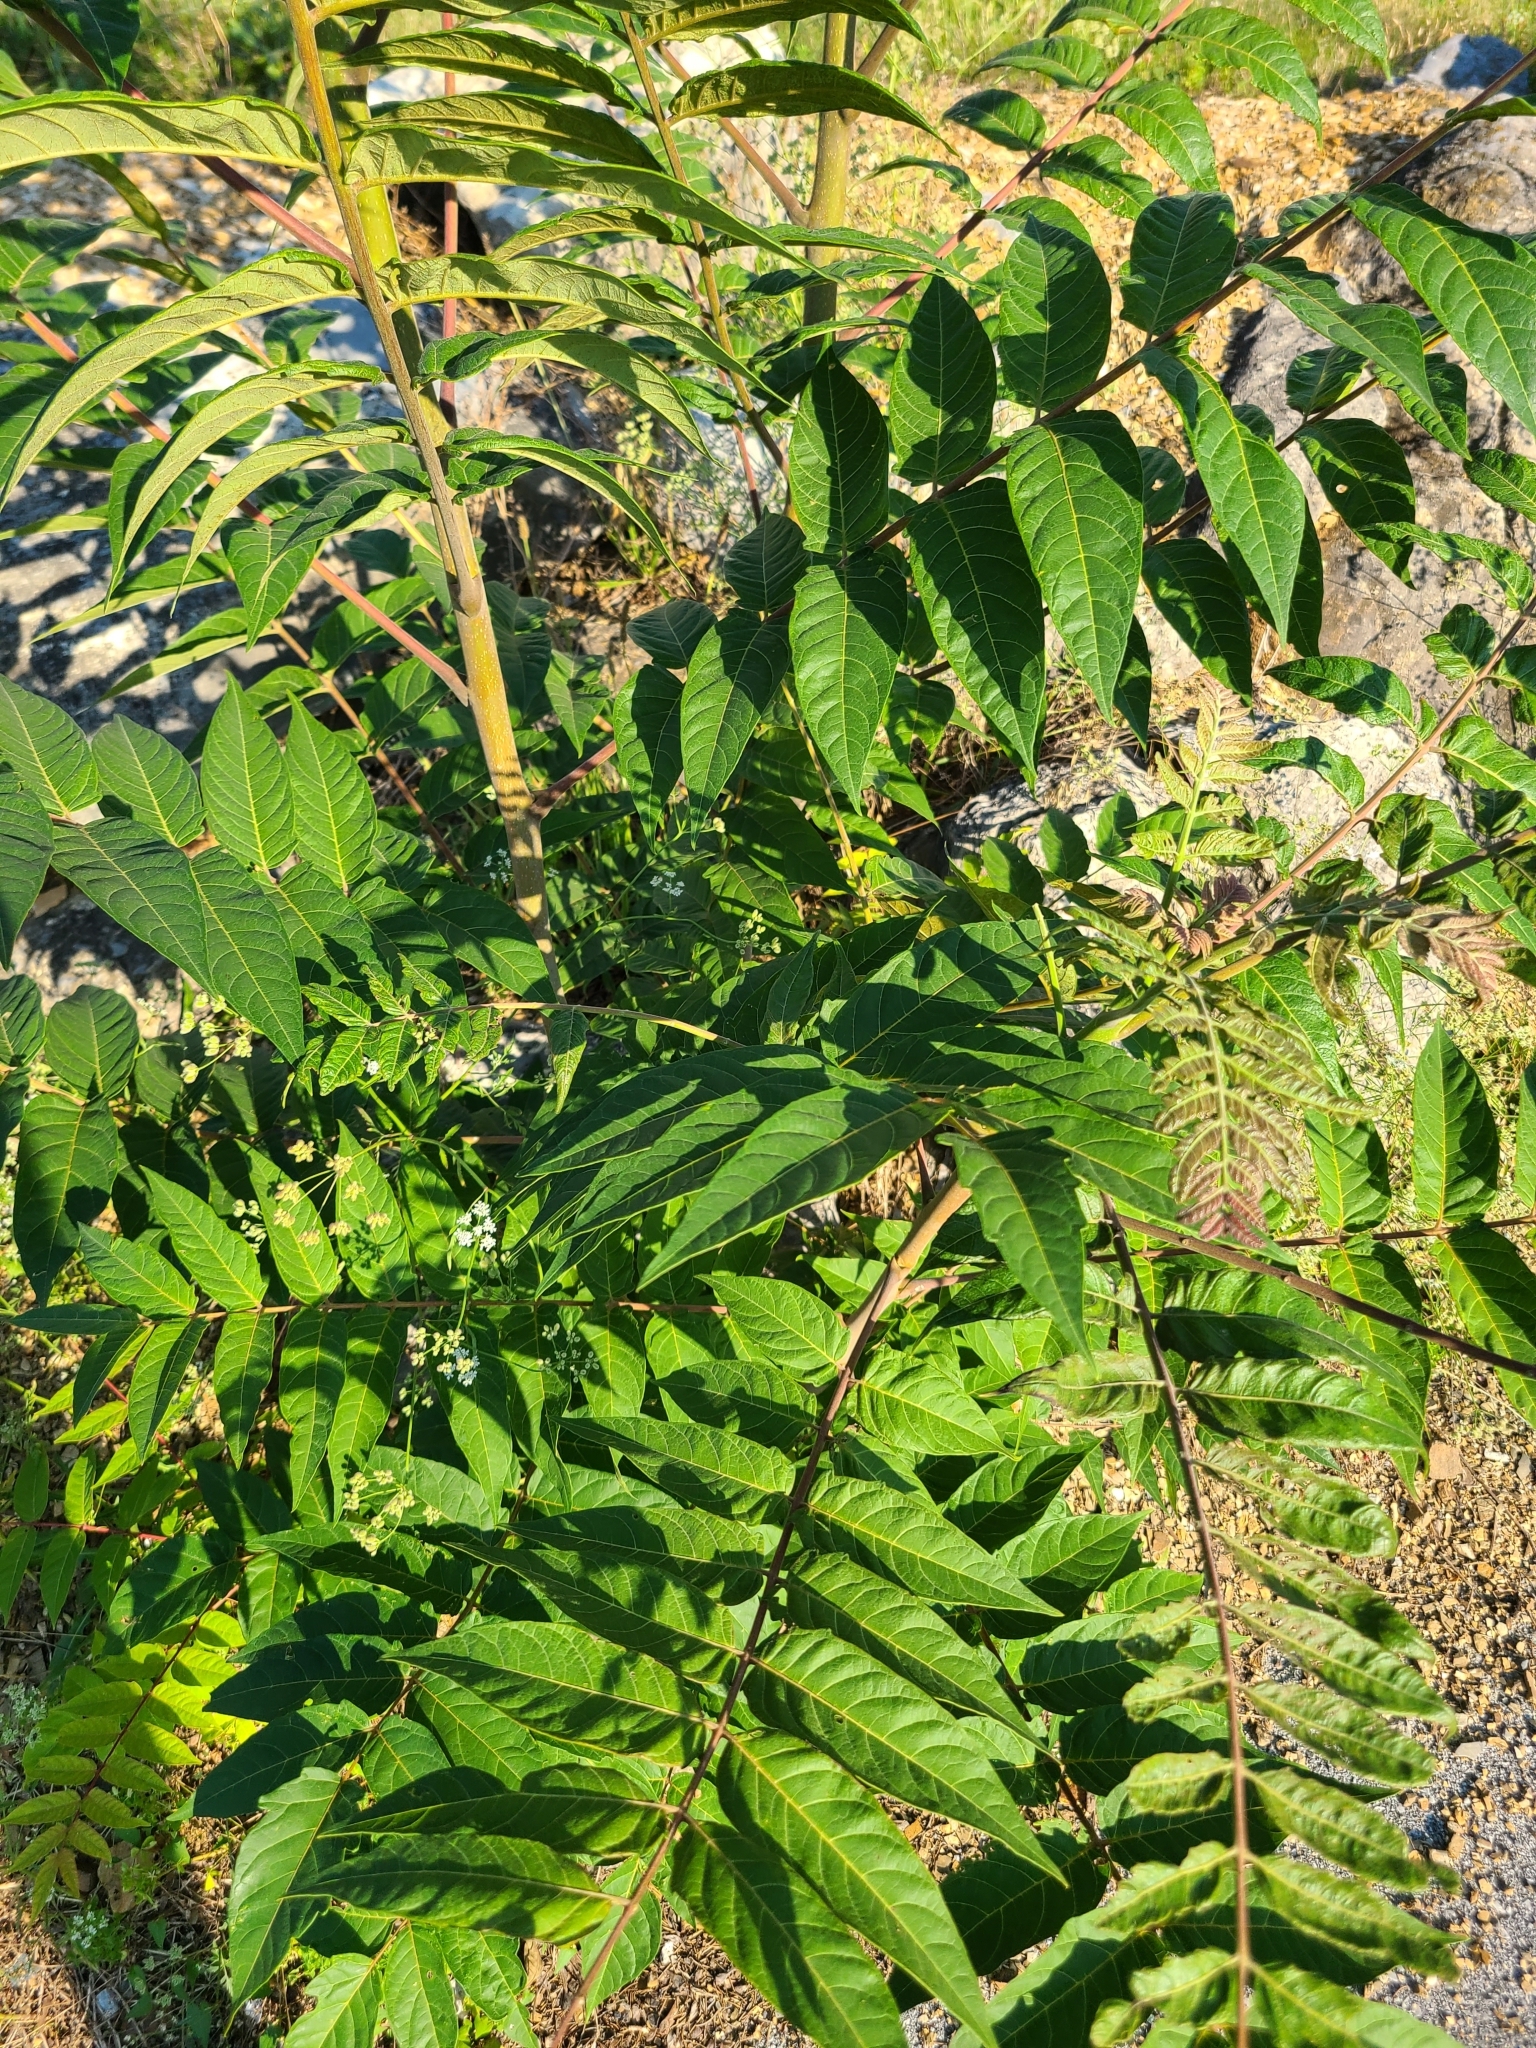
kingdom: Plantae
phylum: Tracheophyta
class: Magnoliopsida
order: Sapindales
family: Simaroubaceae
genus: Ailanthus
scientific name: Ailanthus altissima
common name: Tree-of-heaven
